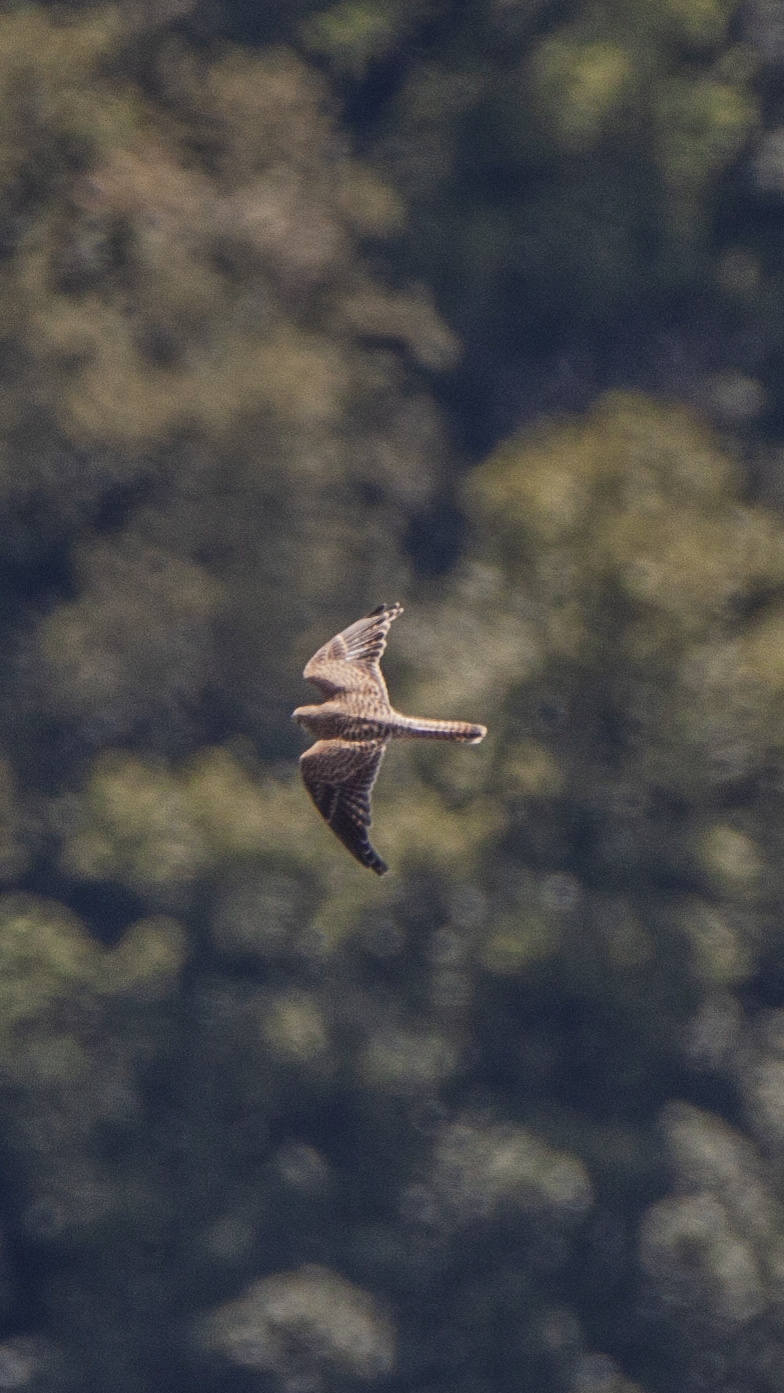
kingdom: Animalia
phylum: Chordata
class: Aves
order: Falconiformes
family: Falconidae
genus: Falco
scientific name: Falco tinnunculus
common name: Common kestrel
